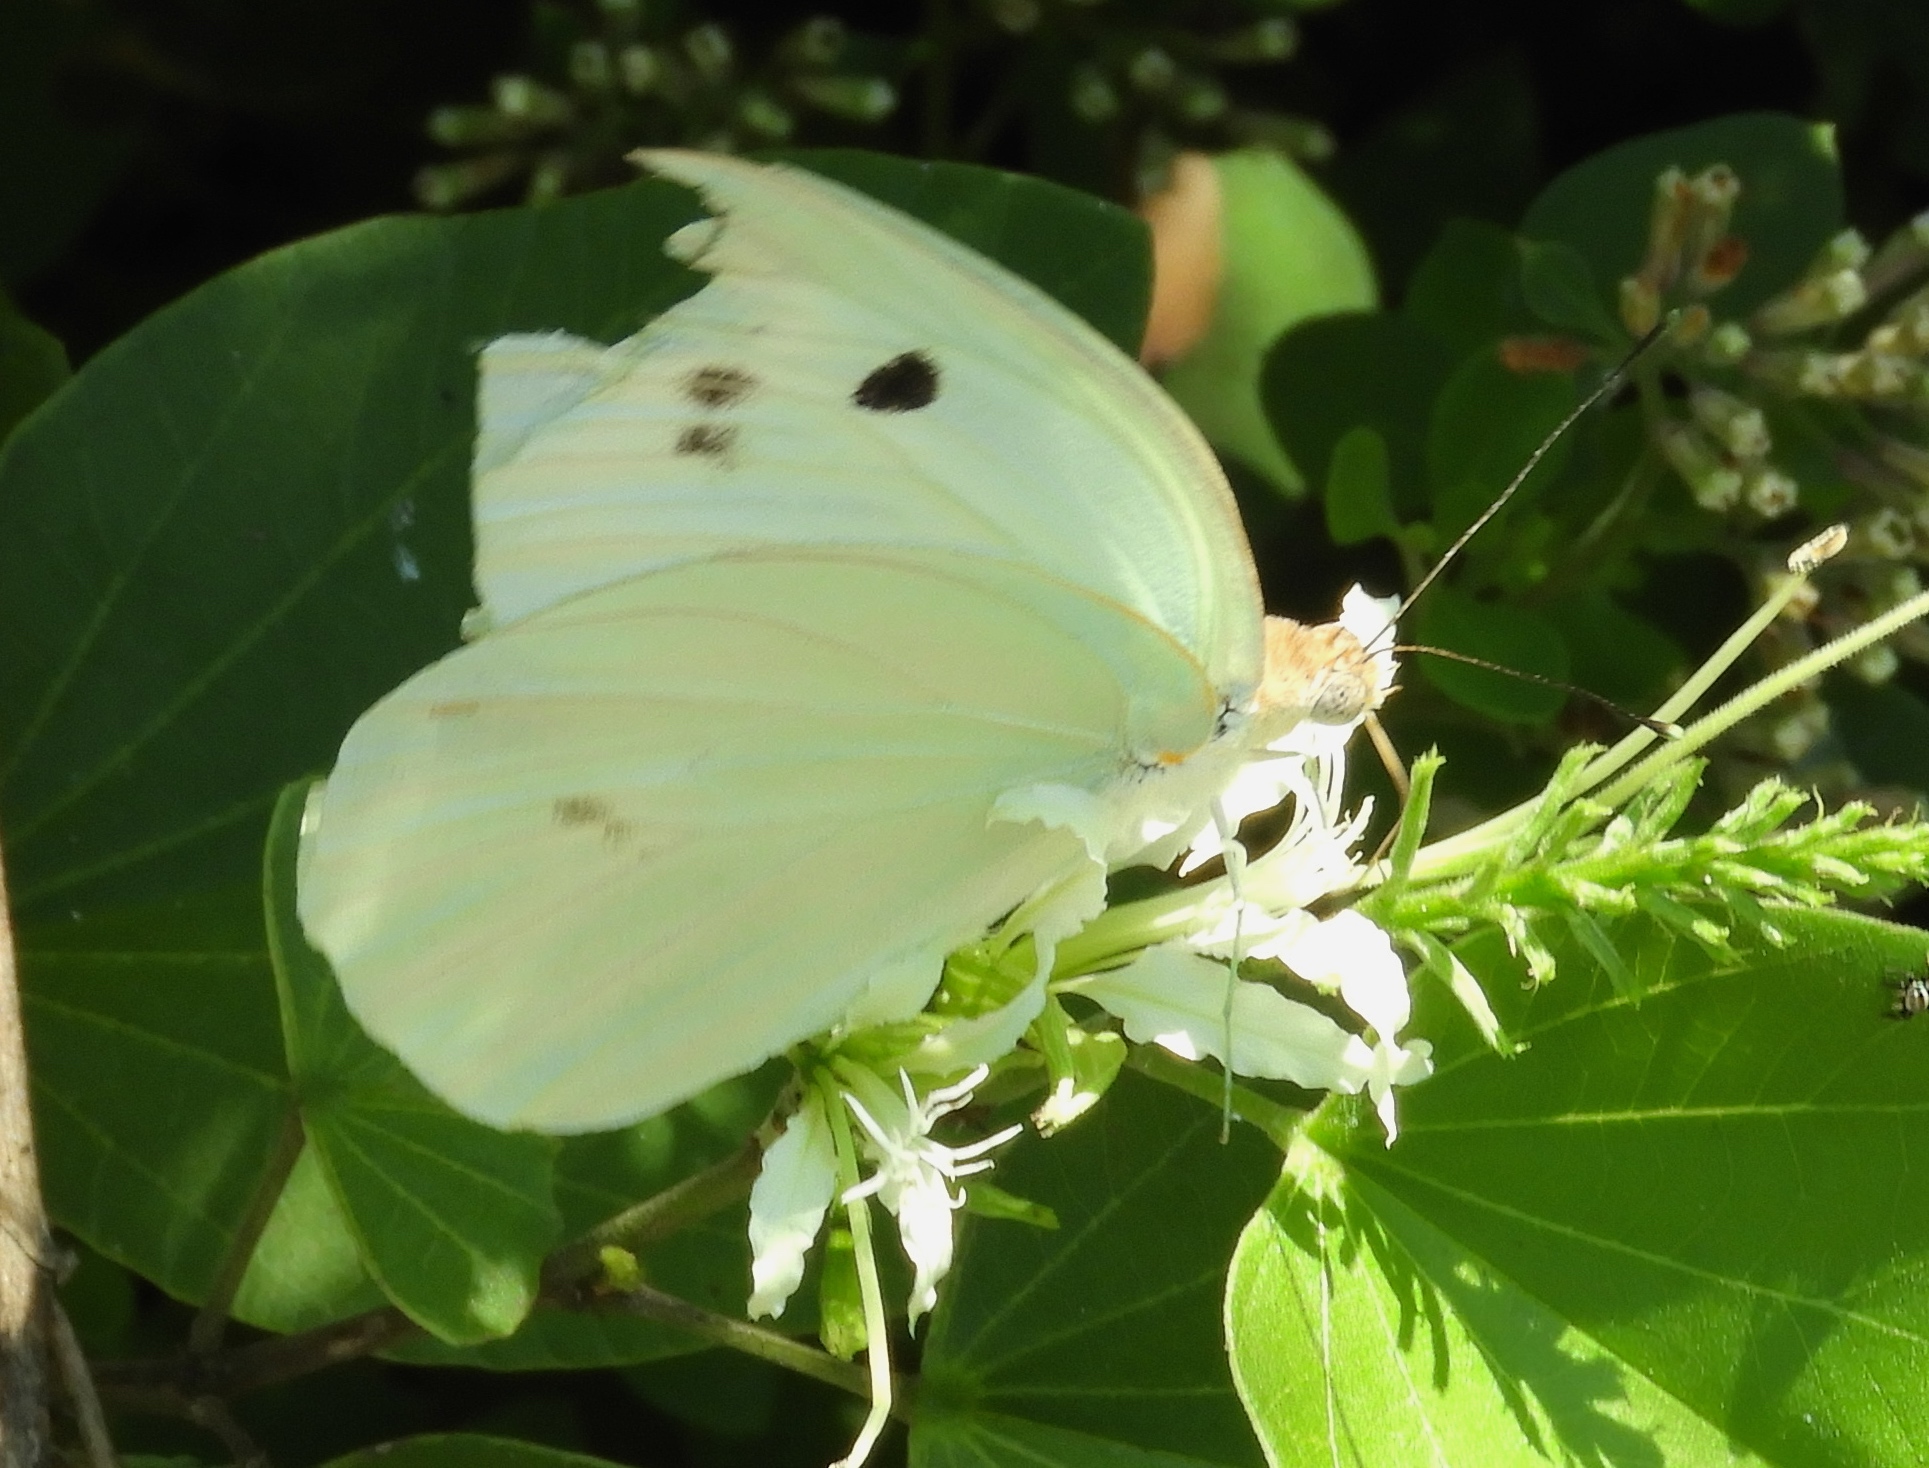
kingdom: Animalia
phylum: Arthropoda
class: Insecta
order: Lepidoptera
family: Pieridae
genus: Ganyra
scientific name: Ganyra josephina
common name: Giant white
